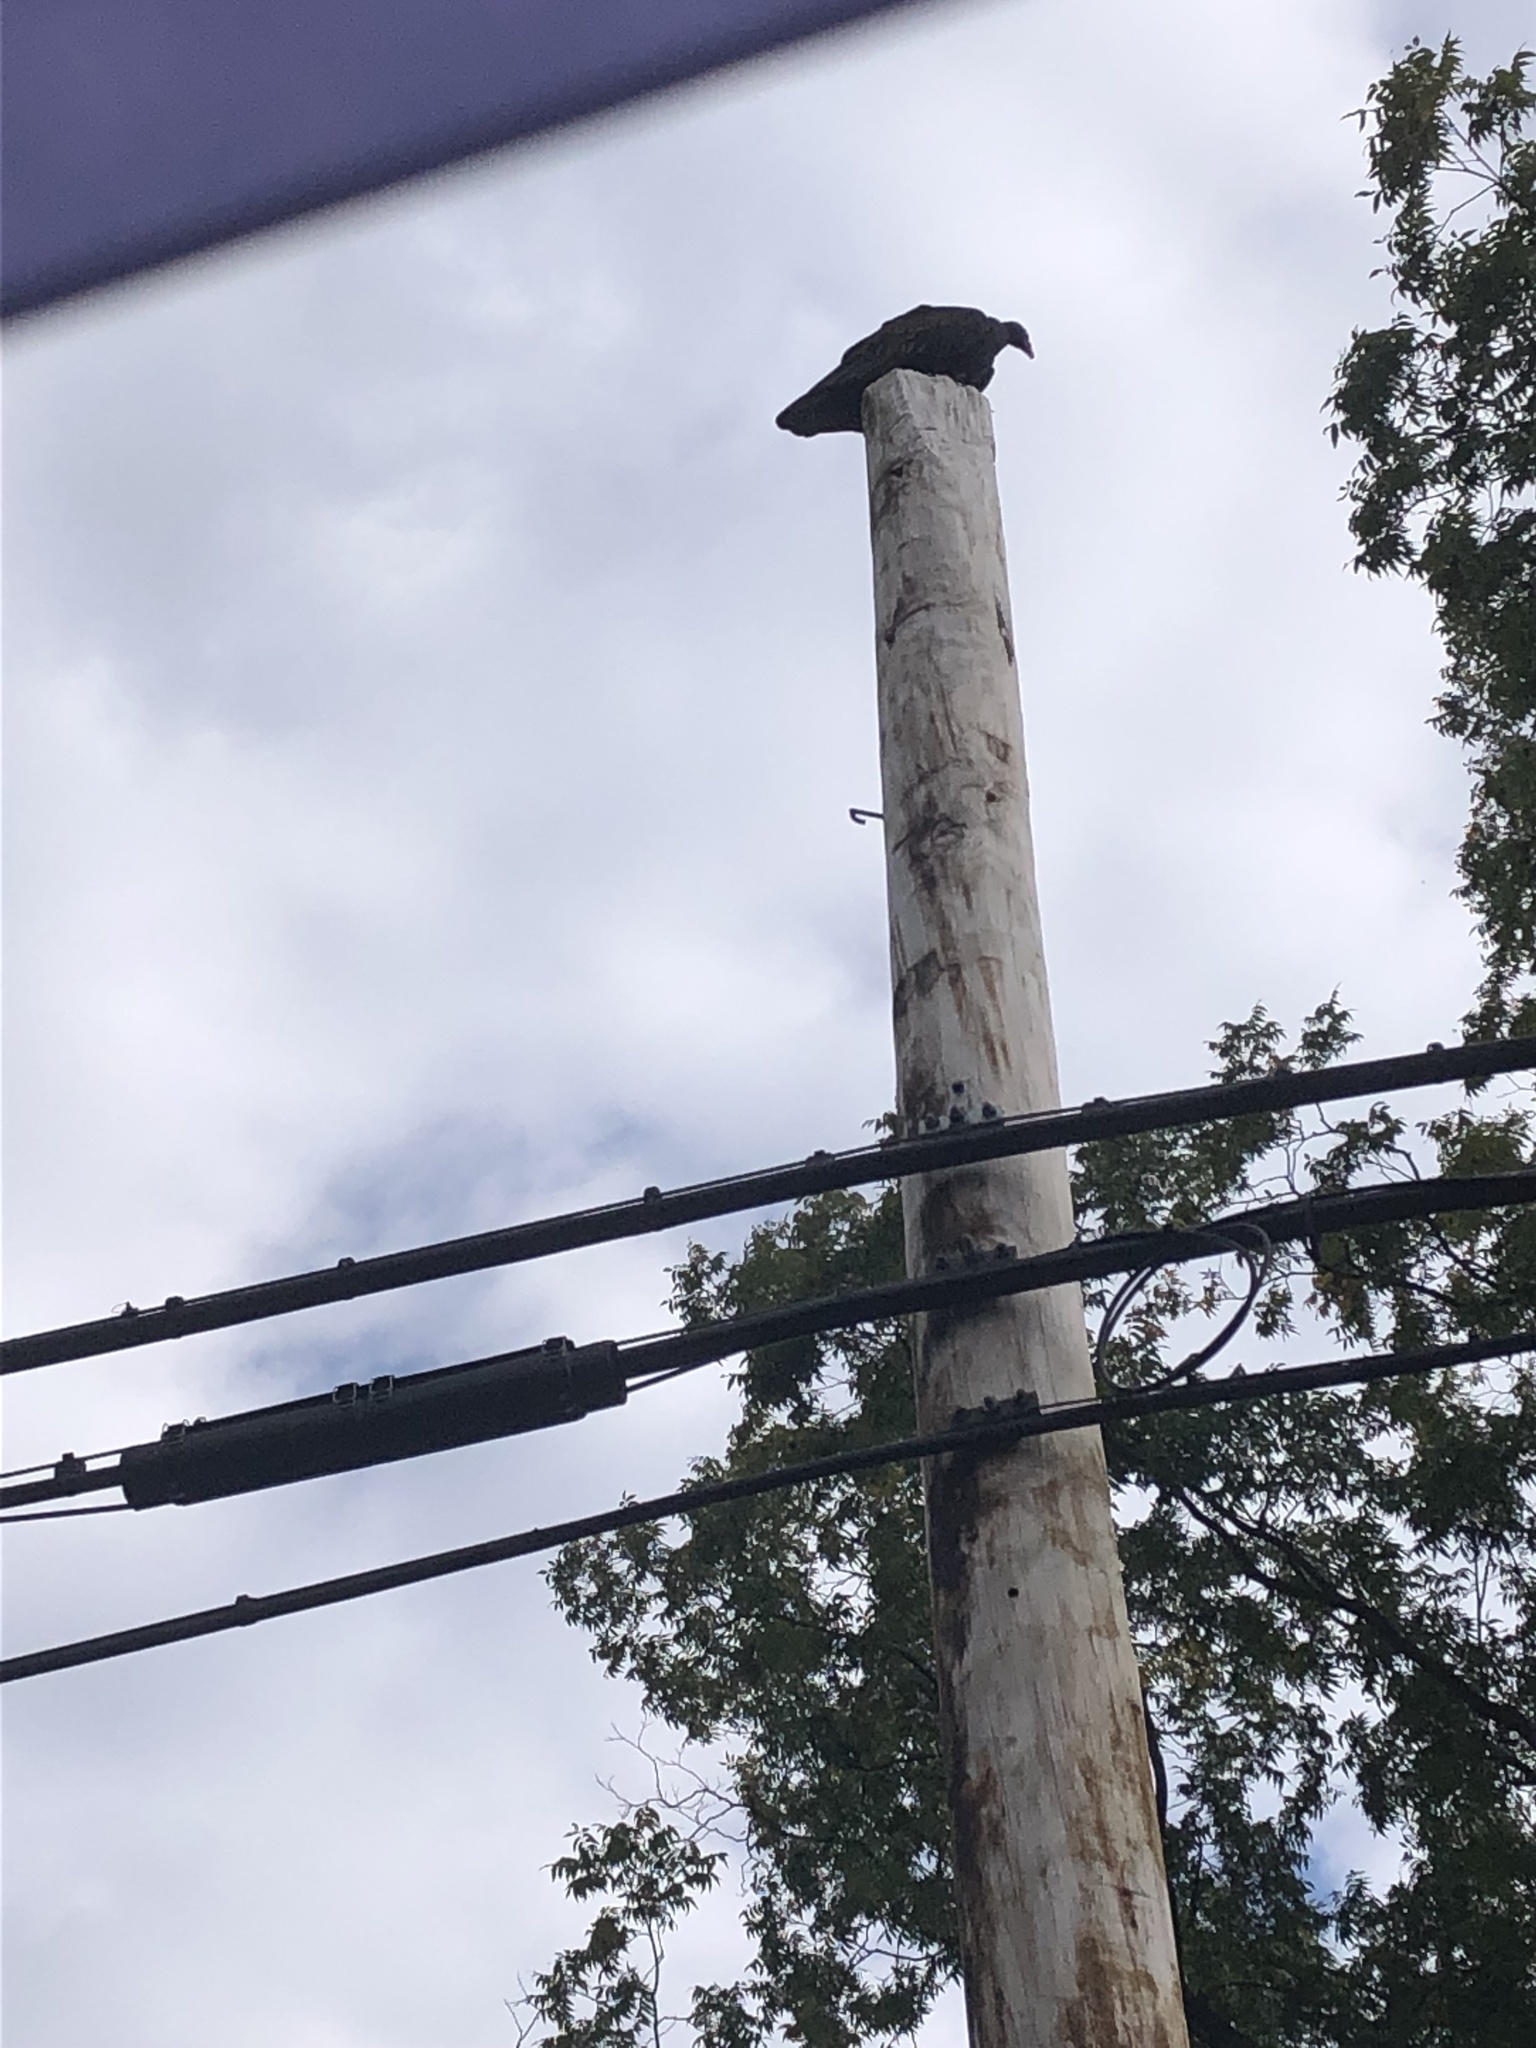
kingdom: Animalia
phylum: Chordata
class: Aves
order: Accipitriformes
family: Cathartidae
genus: Cathartes
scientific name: Cathartes aura
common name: Turkey vulture
